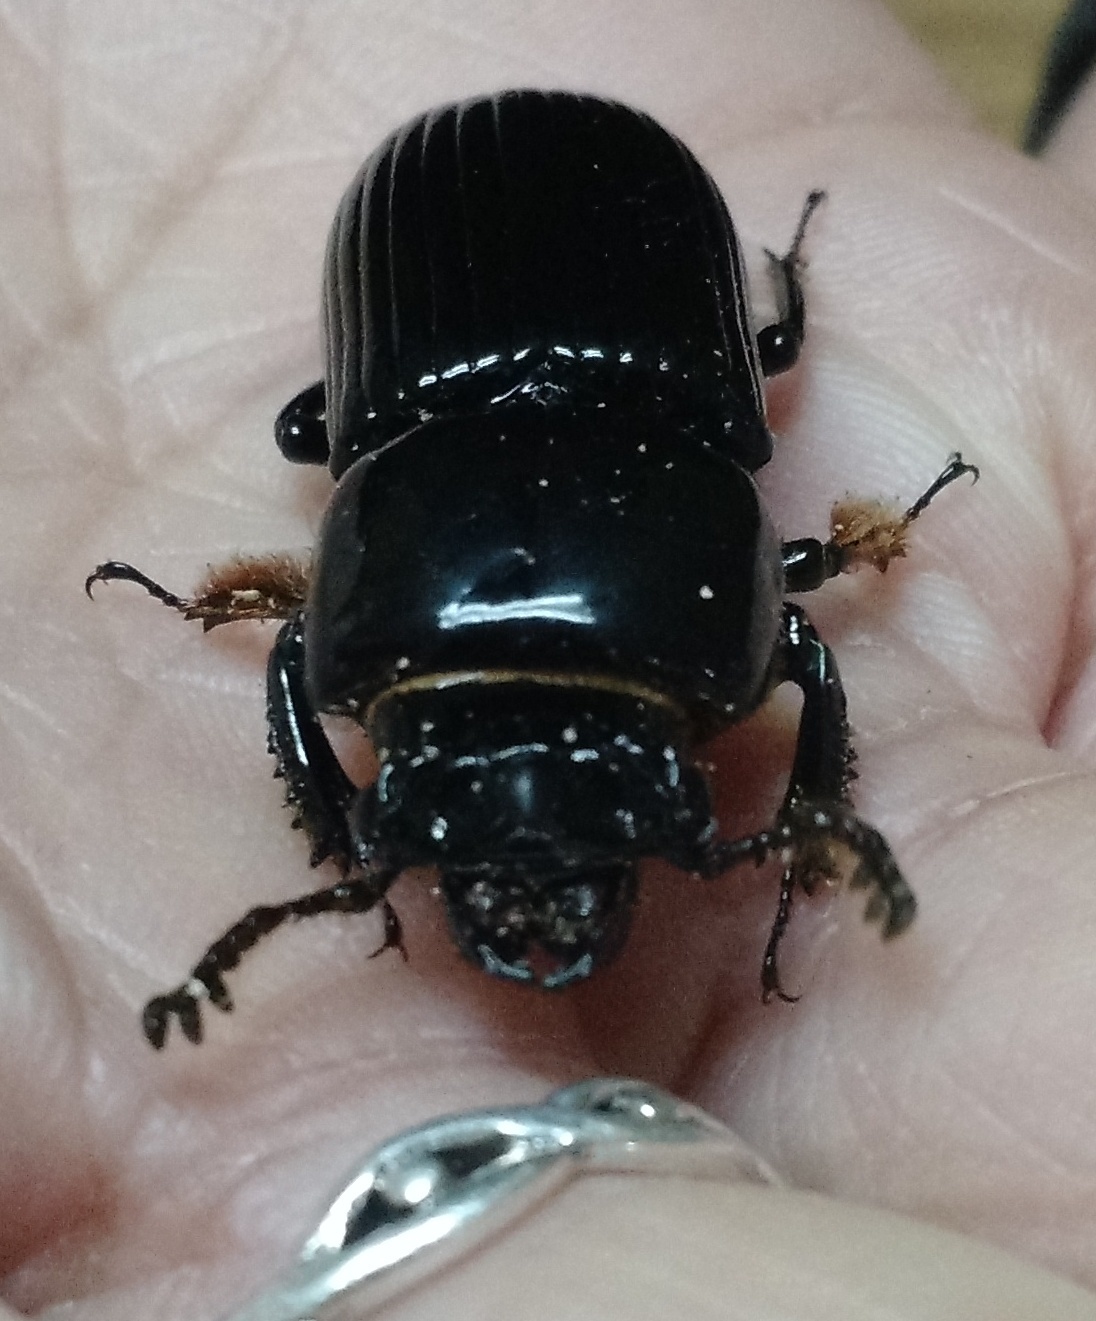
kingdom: Animalia
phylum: Arthropoda
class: Insecta
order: Coleoptera
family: Passalidae
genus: Odontotaenius
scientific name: Odontotaenius disjunctus
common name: Patent leather beetle
